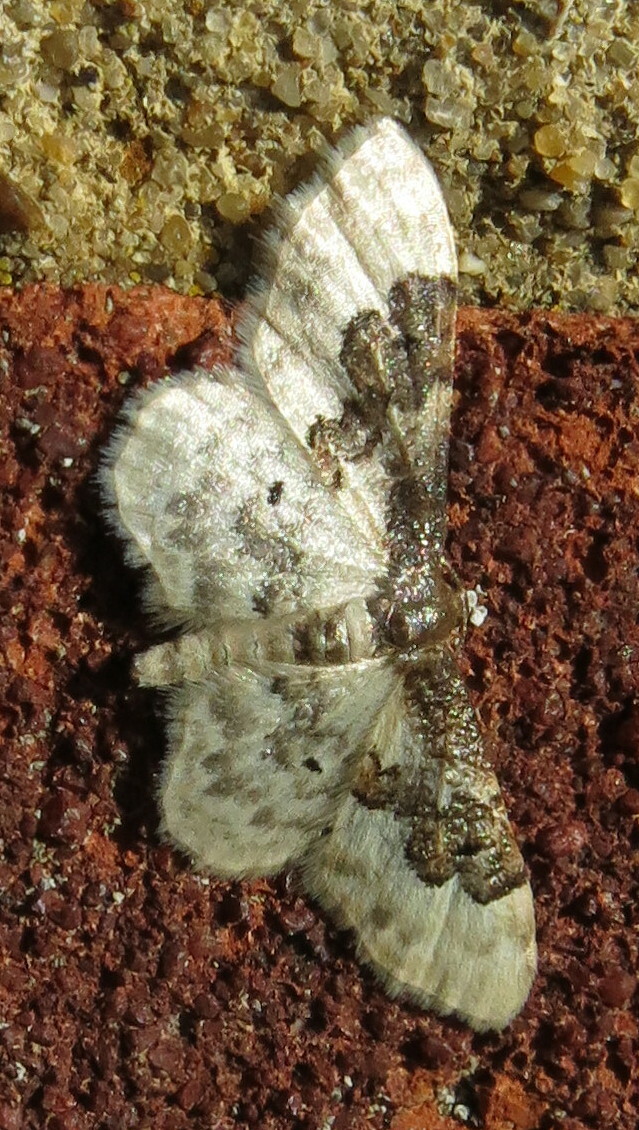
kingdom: Animalia
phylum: Arthropoda
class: Insecta
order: Lepidoptera
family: Geometridae
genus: Idaea
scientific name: Idaea rusticata
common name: Least carpet
